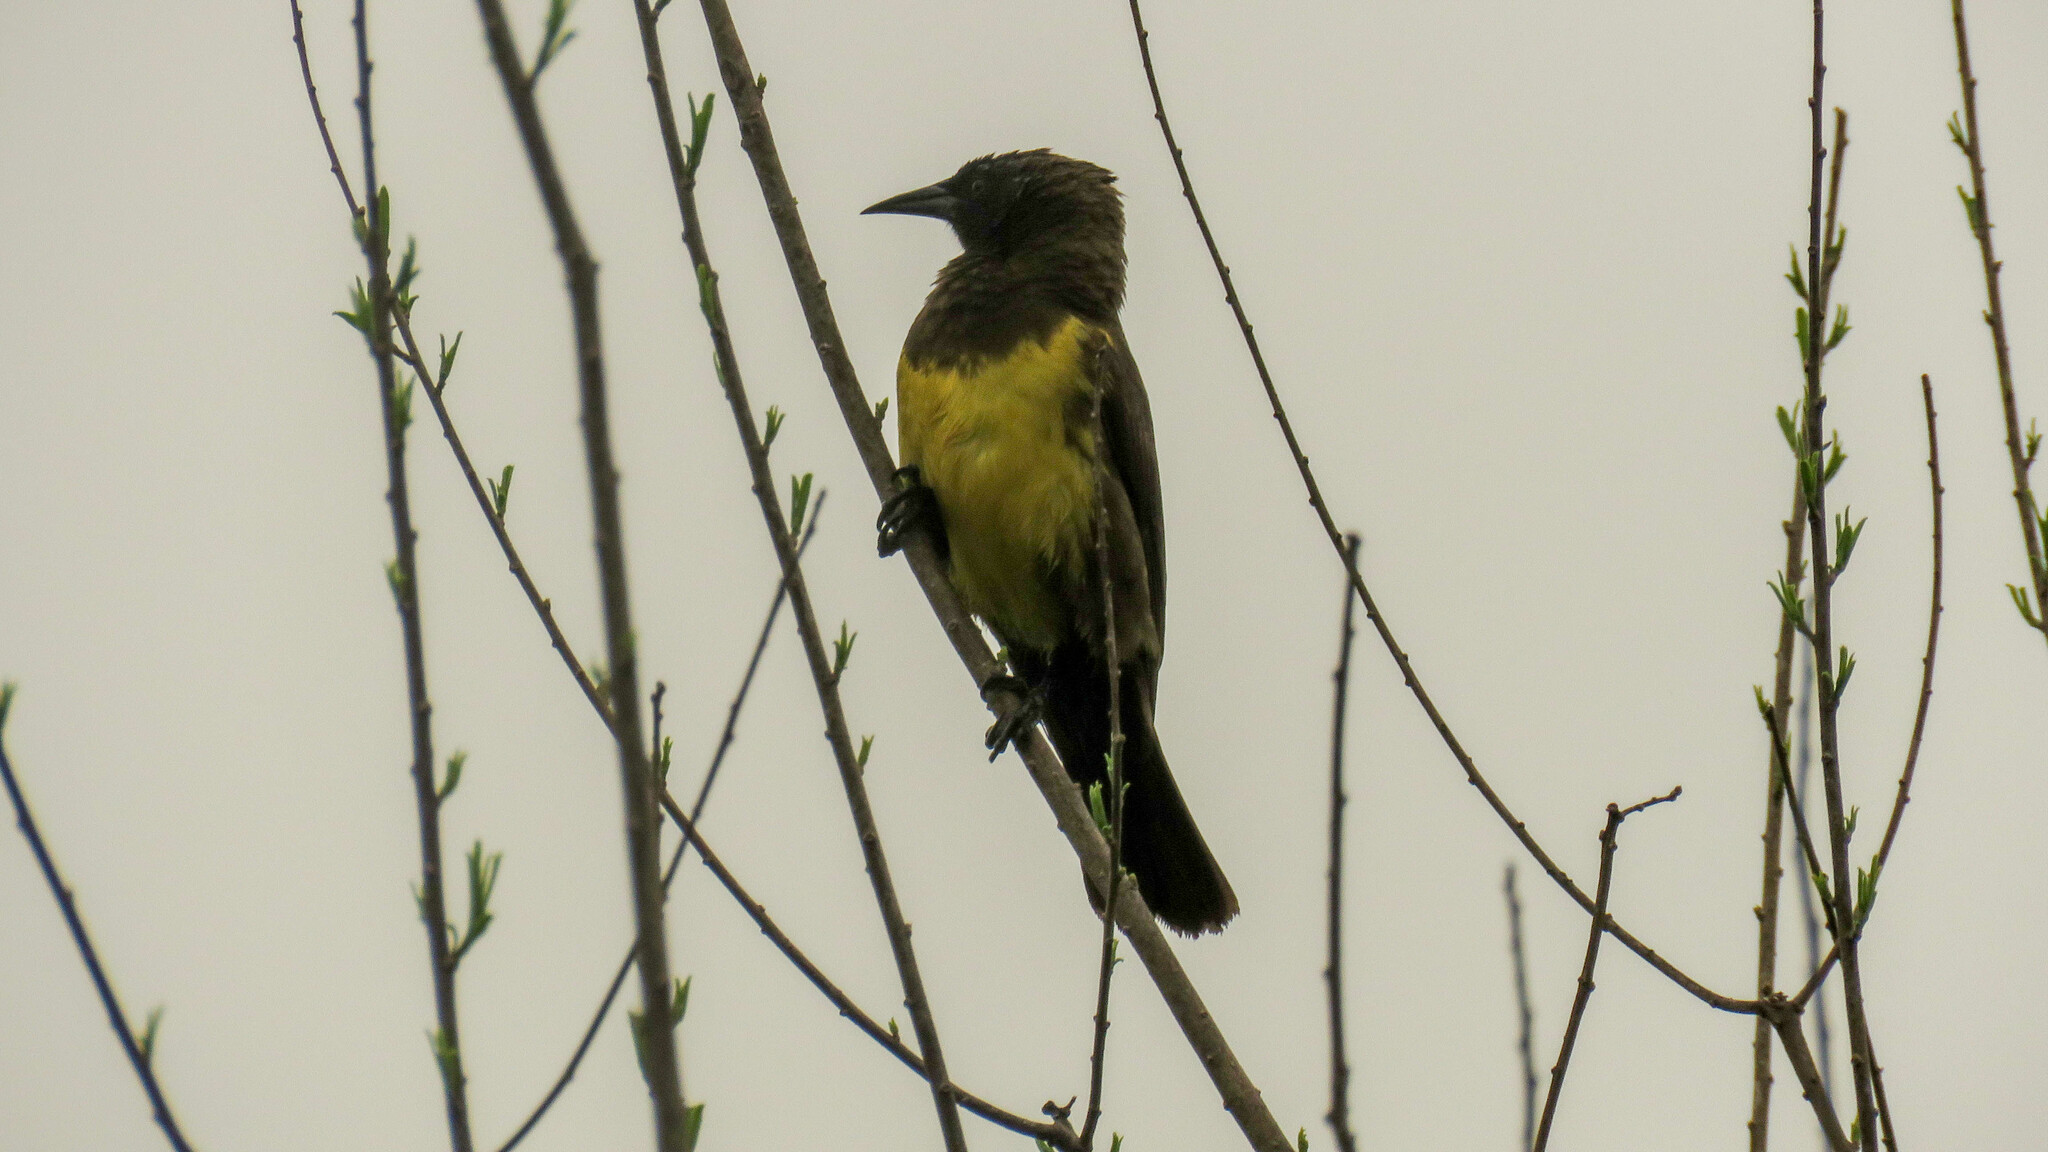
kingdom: Animalia
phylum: Chordata
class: Aves
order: Passeriformes
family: Icteridae
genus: Pseudoleistes
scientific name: Pseudoleistes virescens
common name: Brown-and-yellow marshbird
